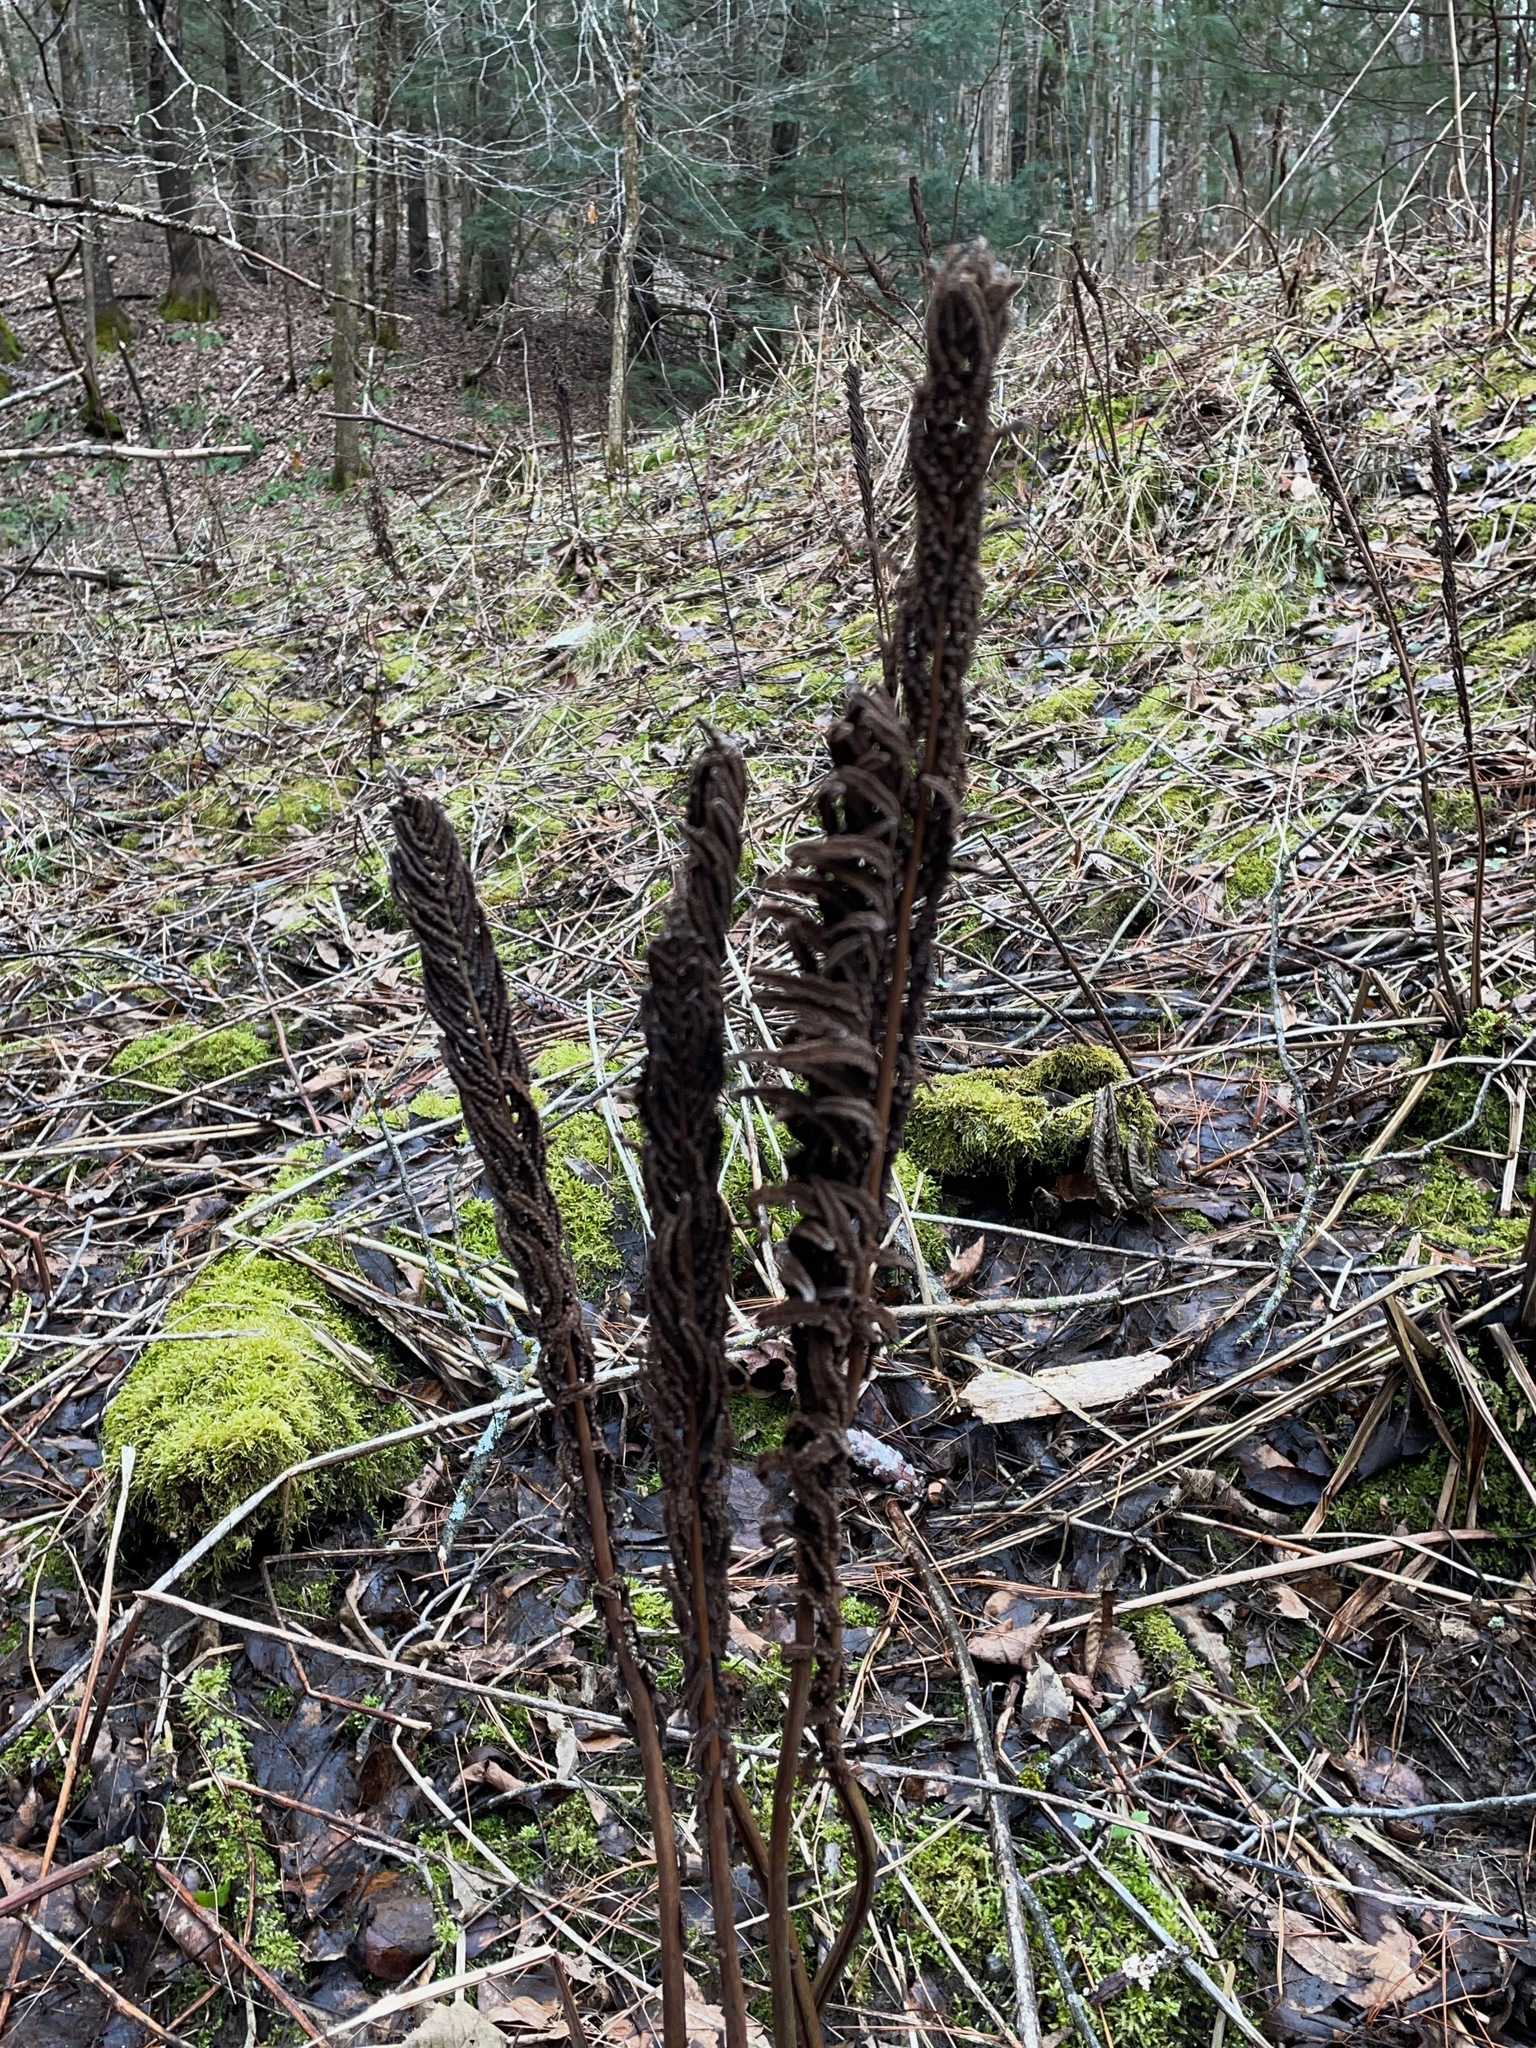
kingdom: Plantae
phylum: Tracheophyta
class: Polypodiopsida
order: Polypodiales
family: Onocleaceae
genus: Matteuccia
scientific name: Matteuccia struthiopteris
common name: Ostrich fern
